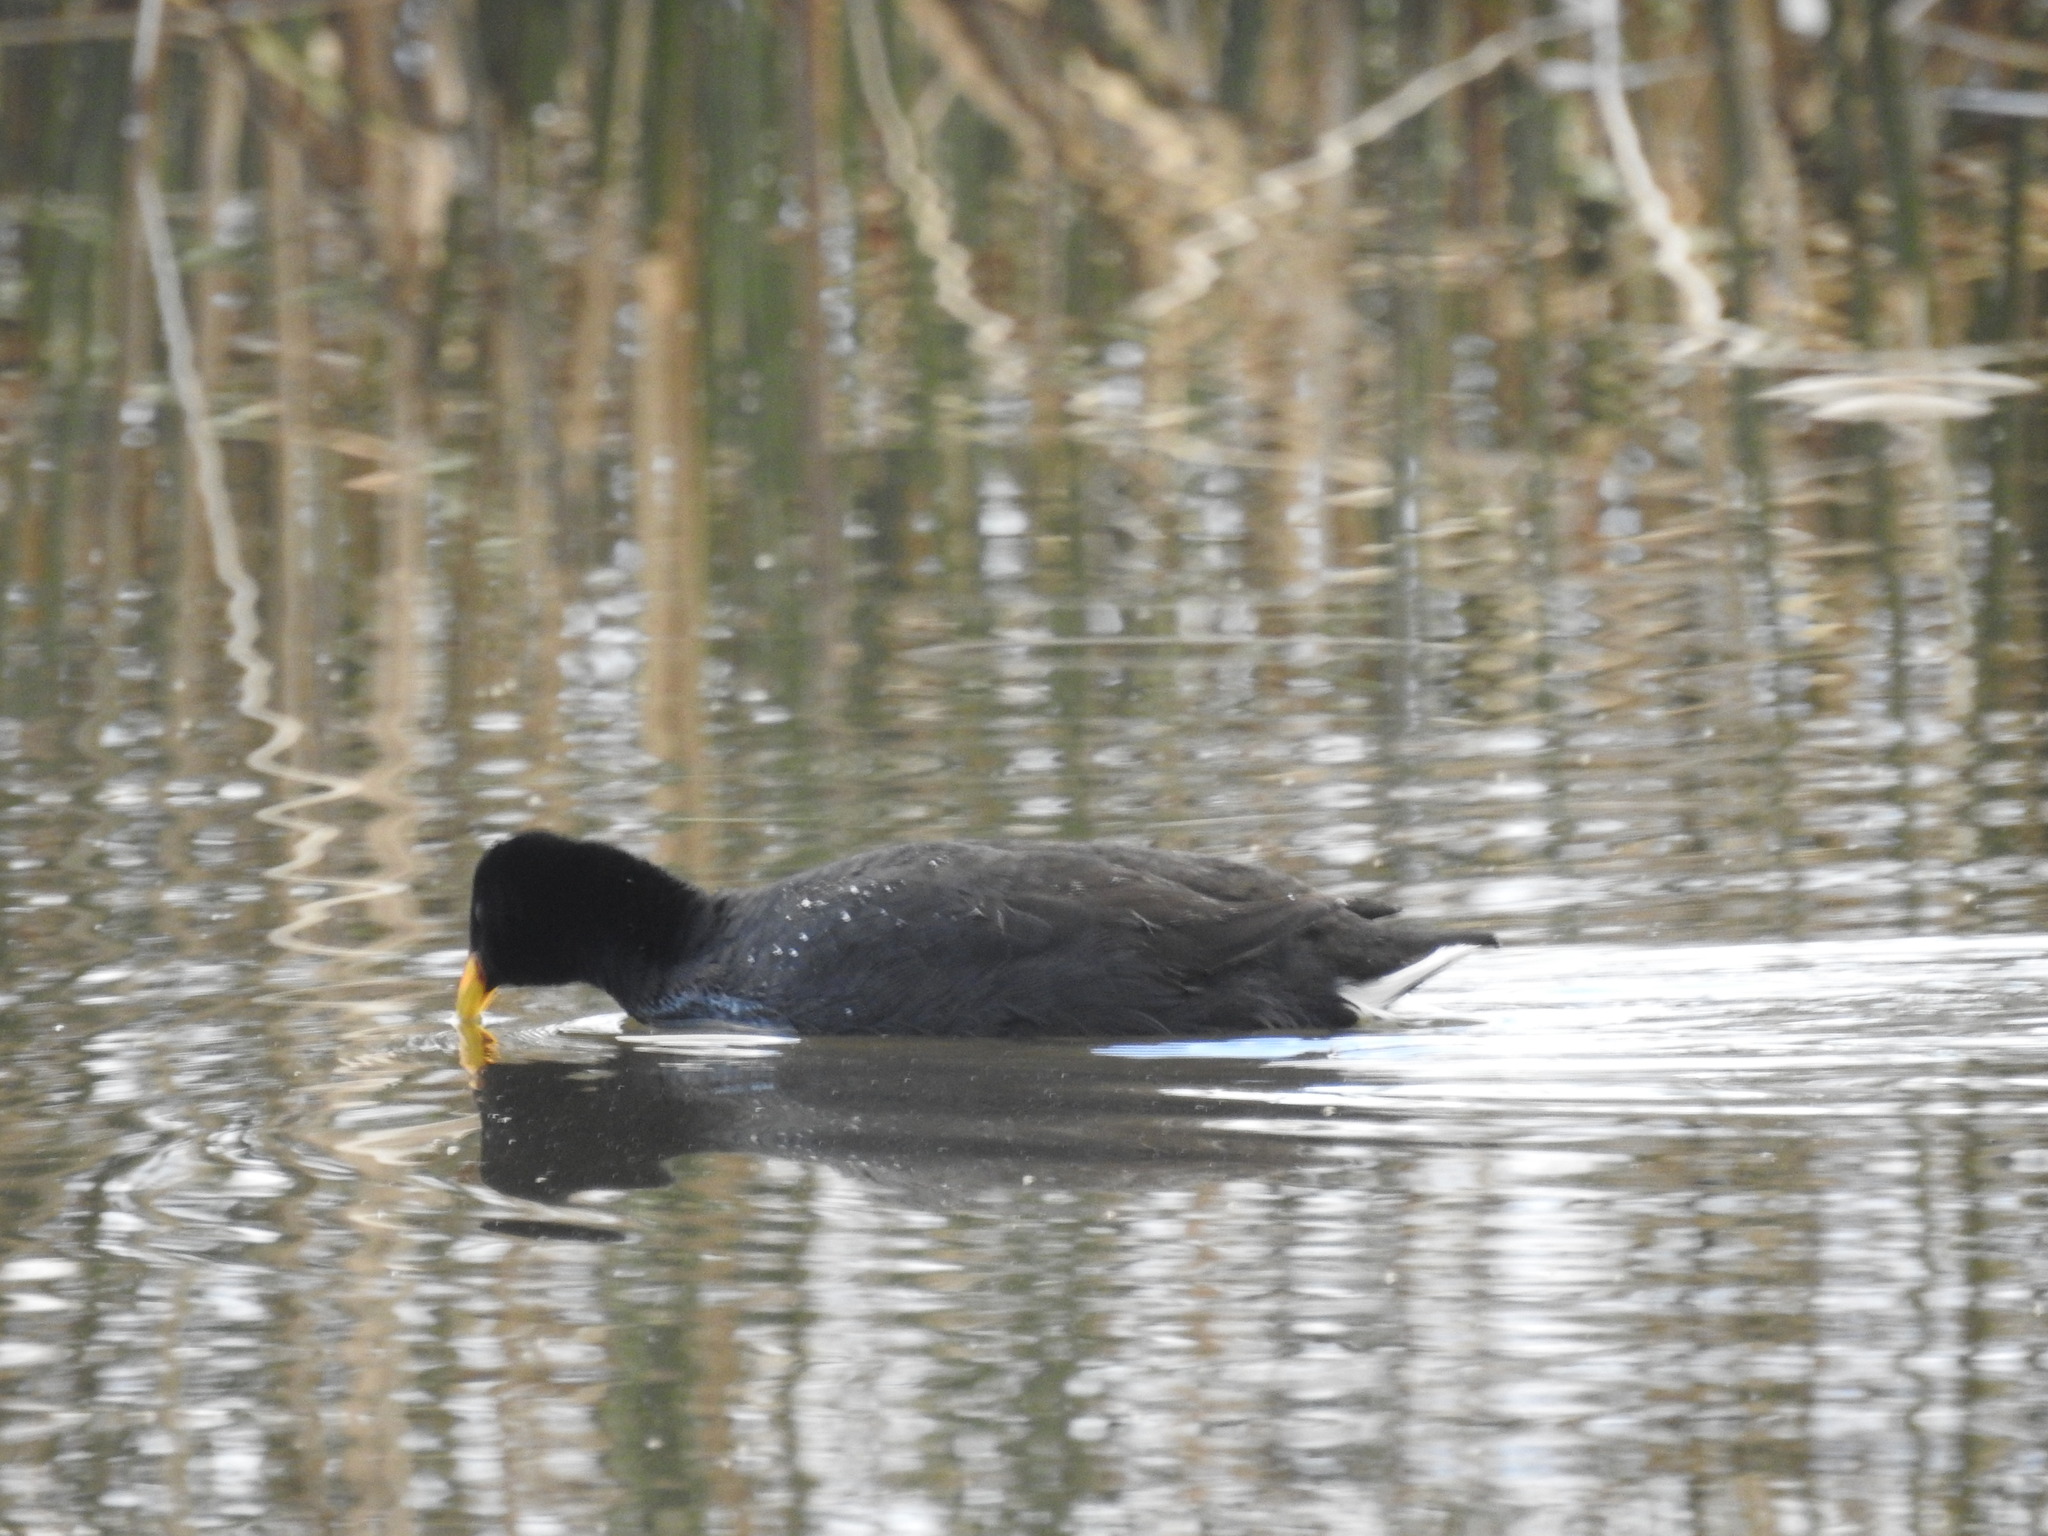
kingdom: Animalia
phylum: Chordata
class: Aves
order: Gruiformes
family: Rallidae
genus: Fulica
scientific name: Fulica rufifrons
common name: Red-fronted coot
